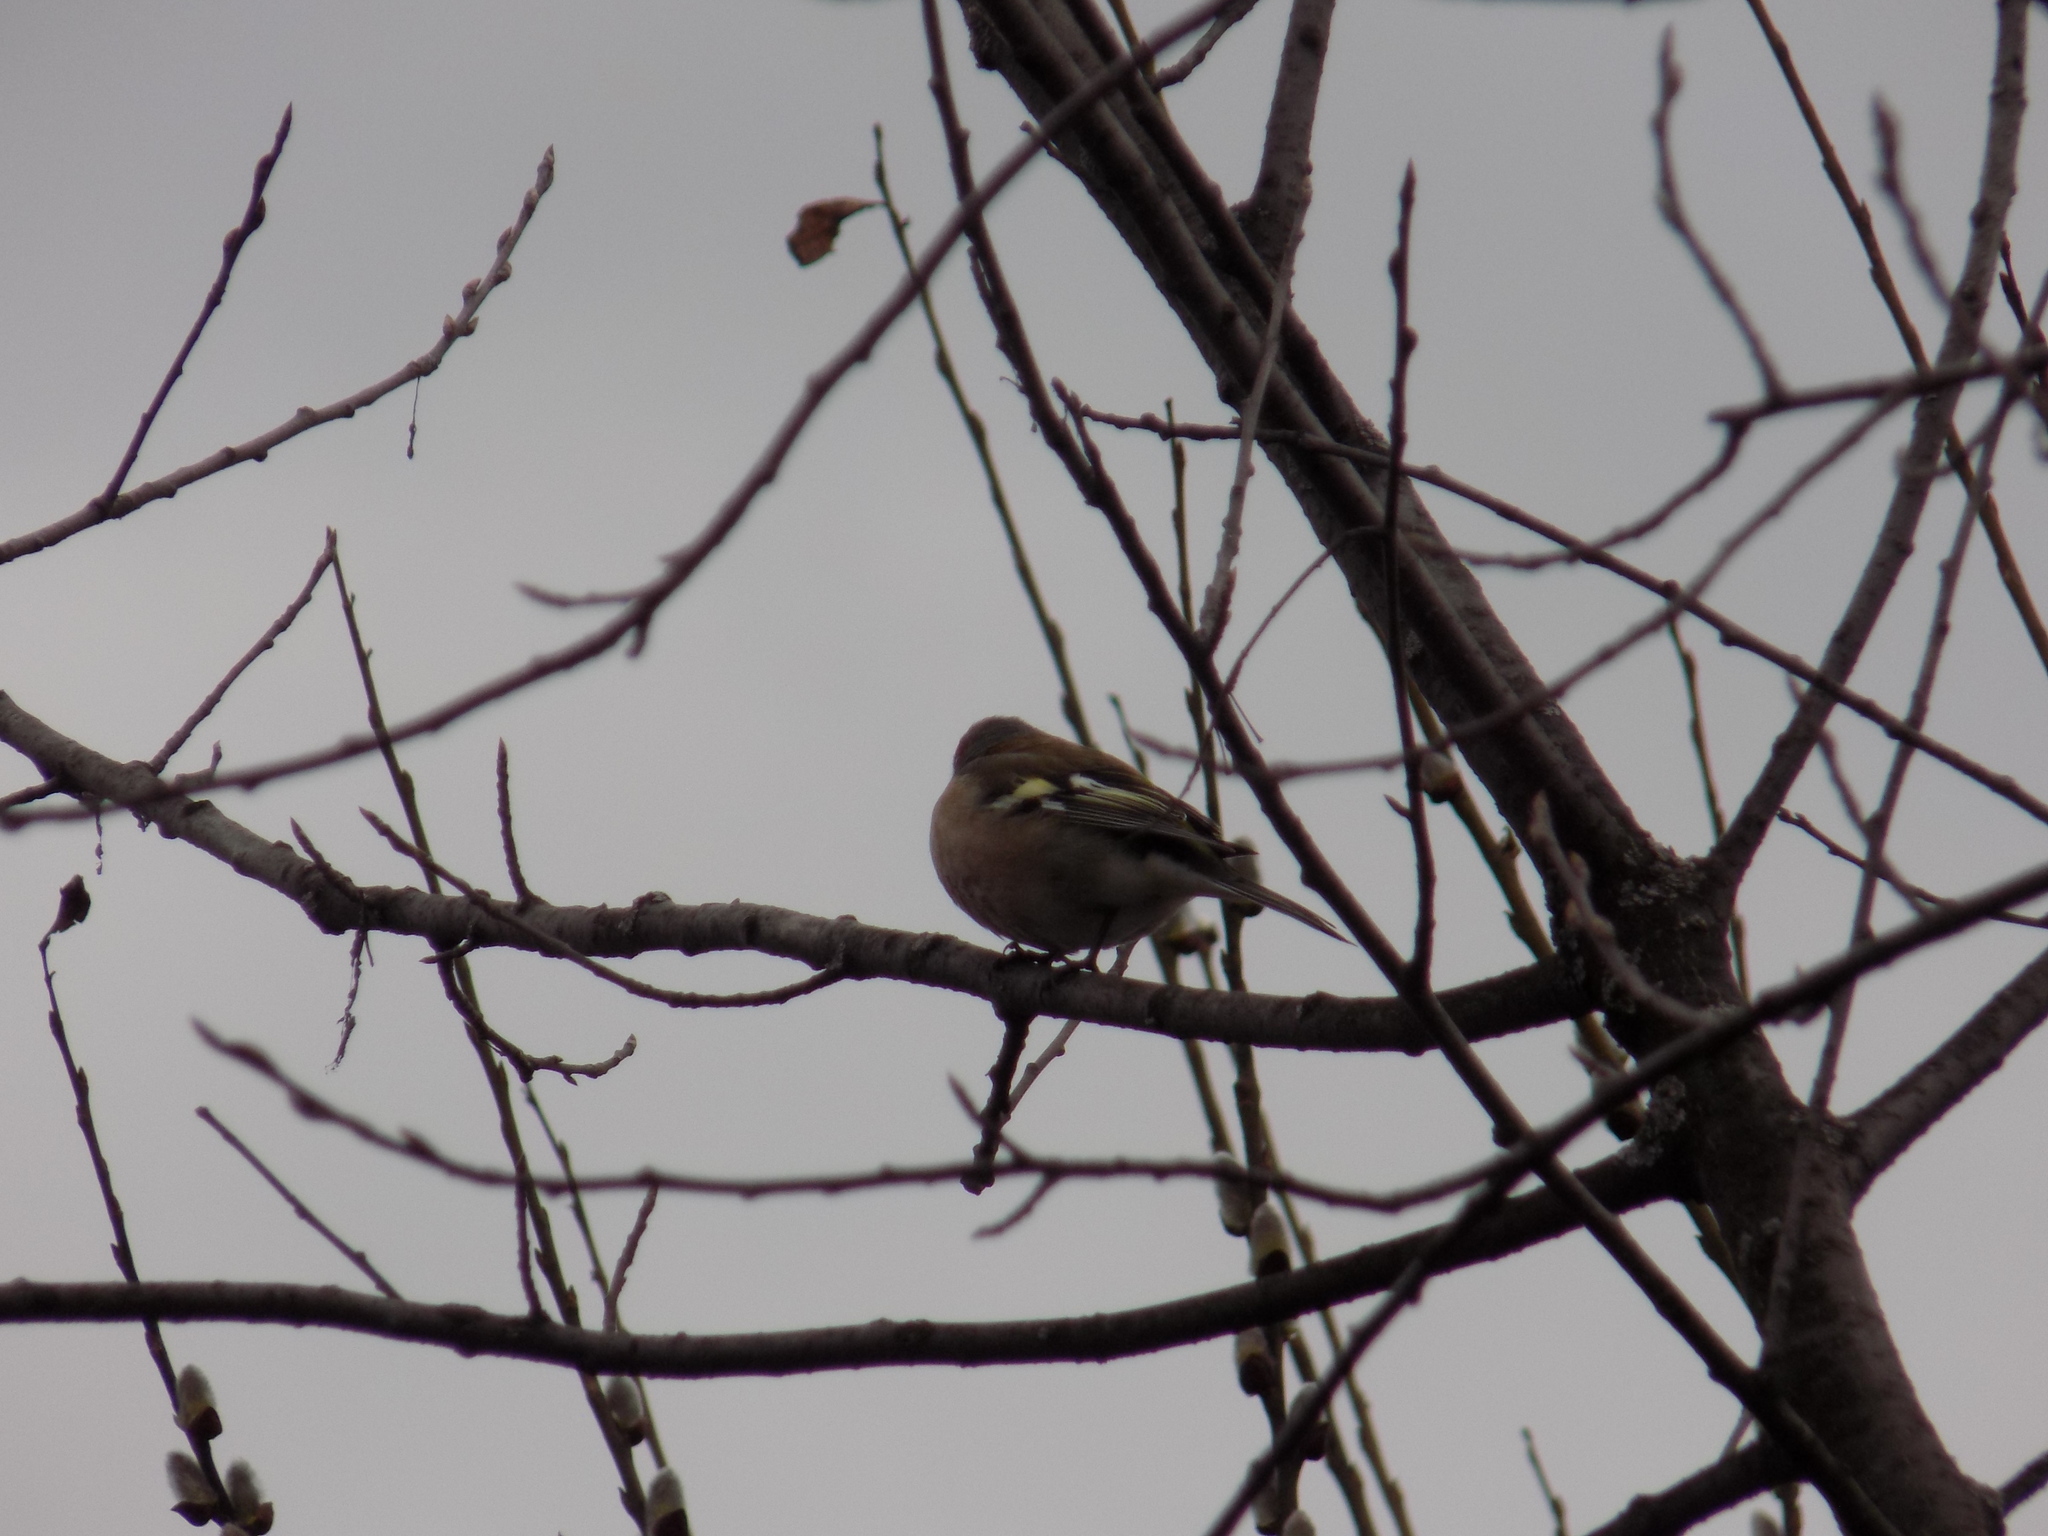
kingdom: Animalia
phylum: Chordata
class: Aves
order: Passeriformes
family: Fringillidae
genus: Fringilla
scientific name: Fringilla coelebs
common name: Common chaffinch
